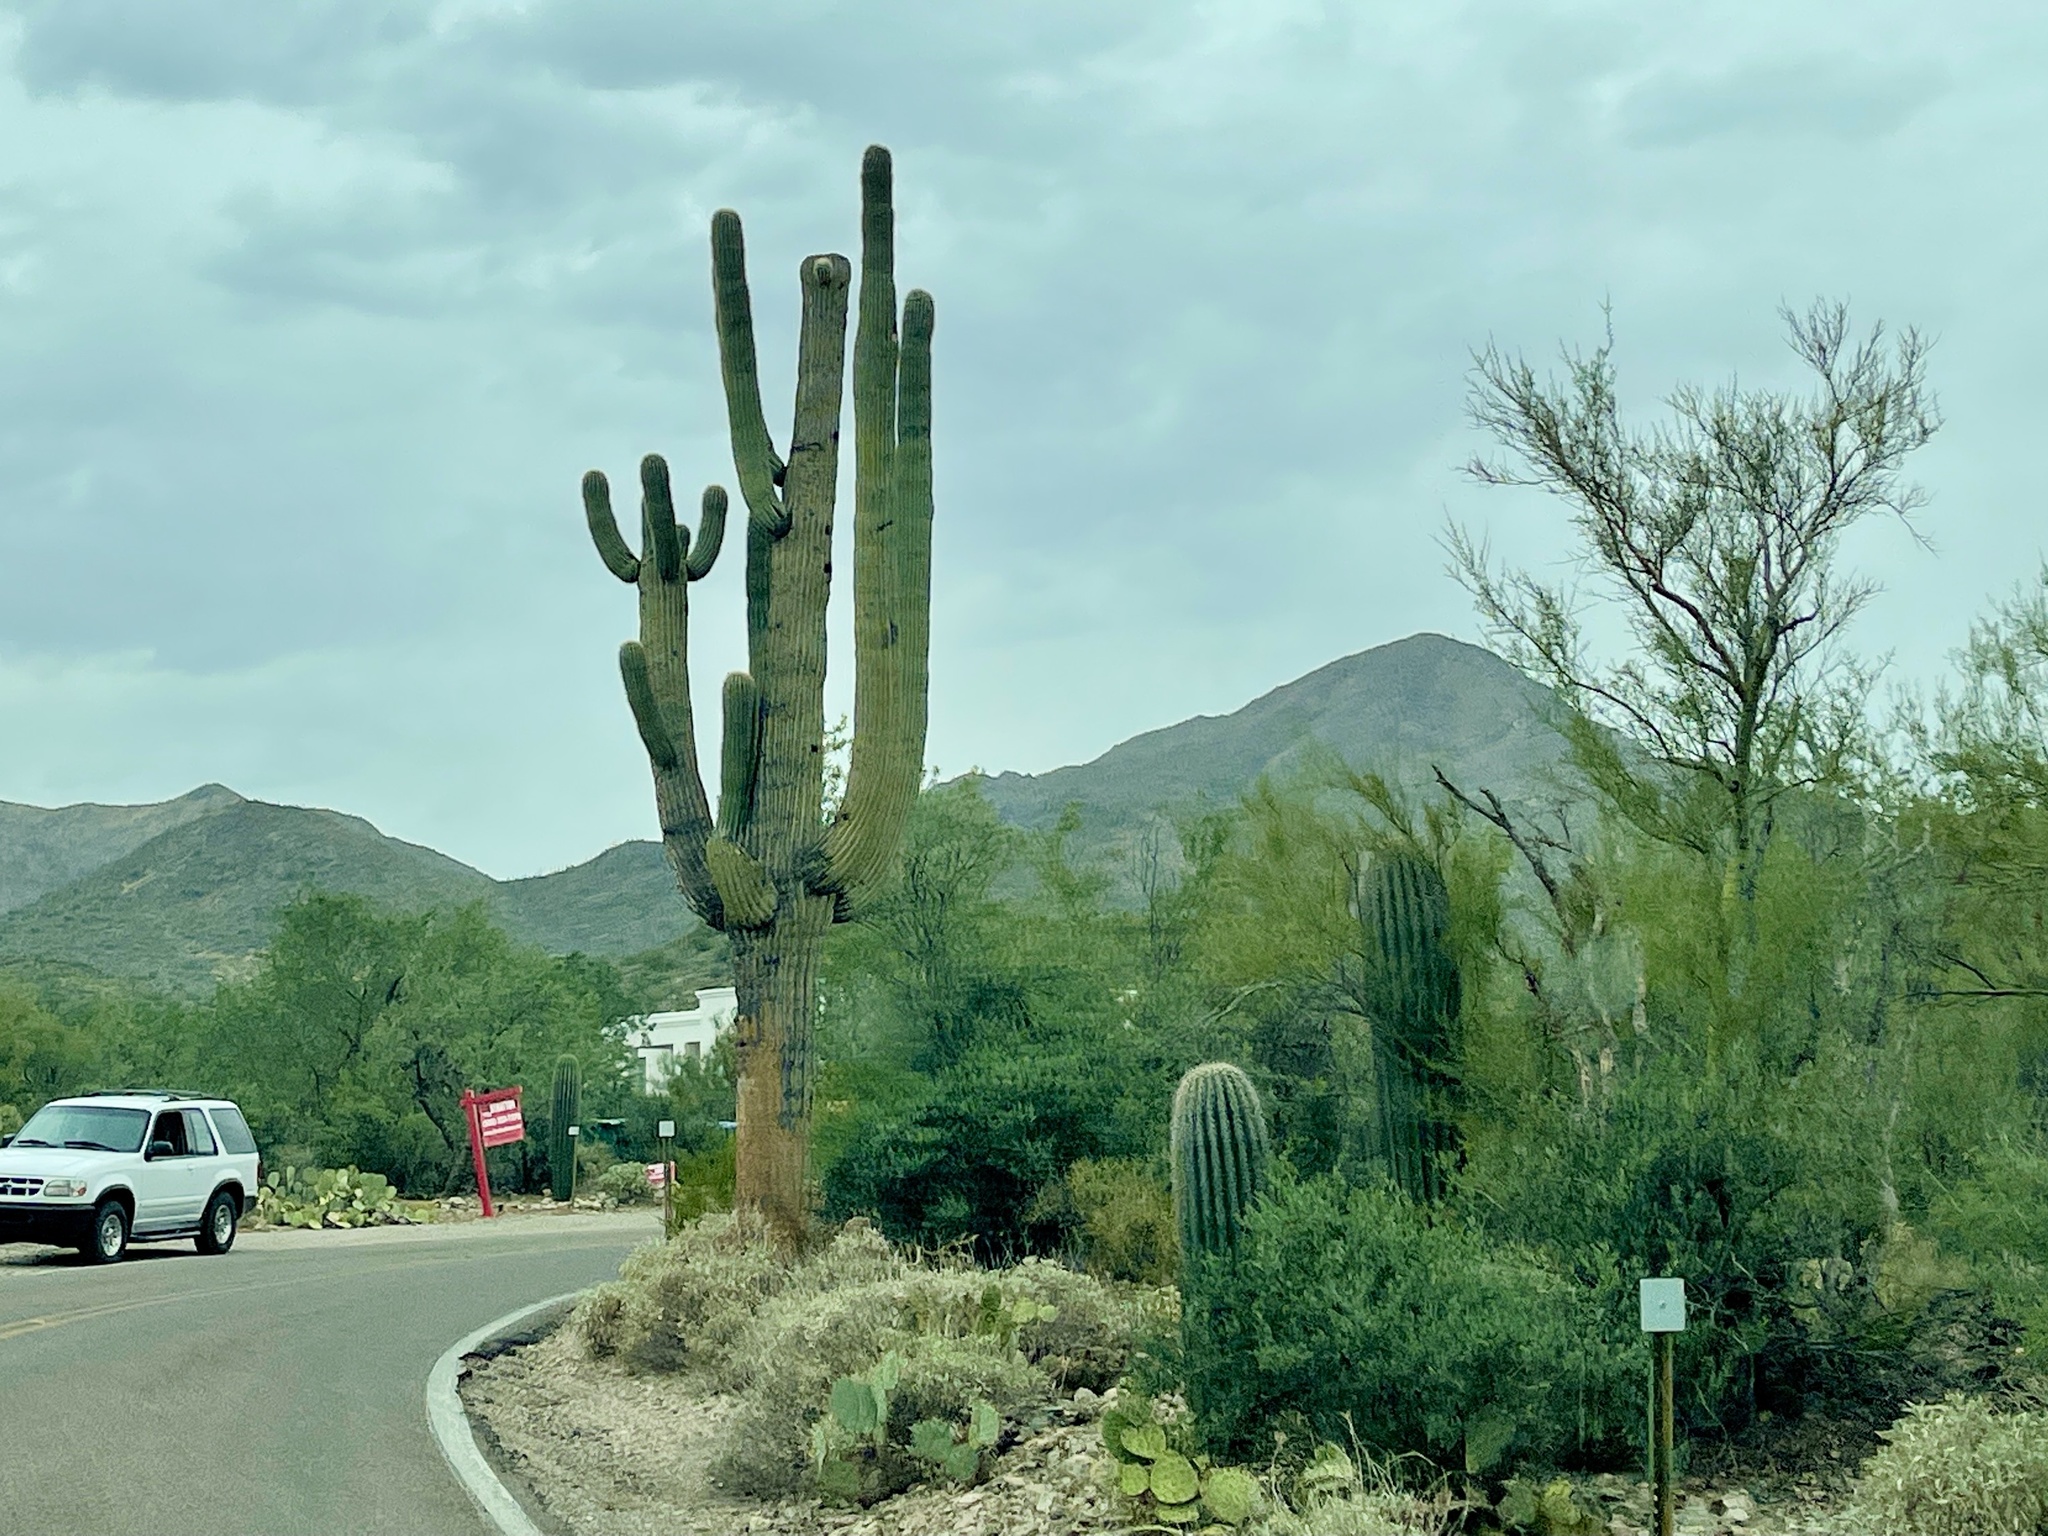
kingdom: Plantae
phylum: Tracheophyta
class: Magnoliopsida
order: Caryophyllales
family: Cactaceae
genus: Carnegiea
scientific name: Carnegiea gigantea
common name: Saguaro
